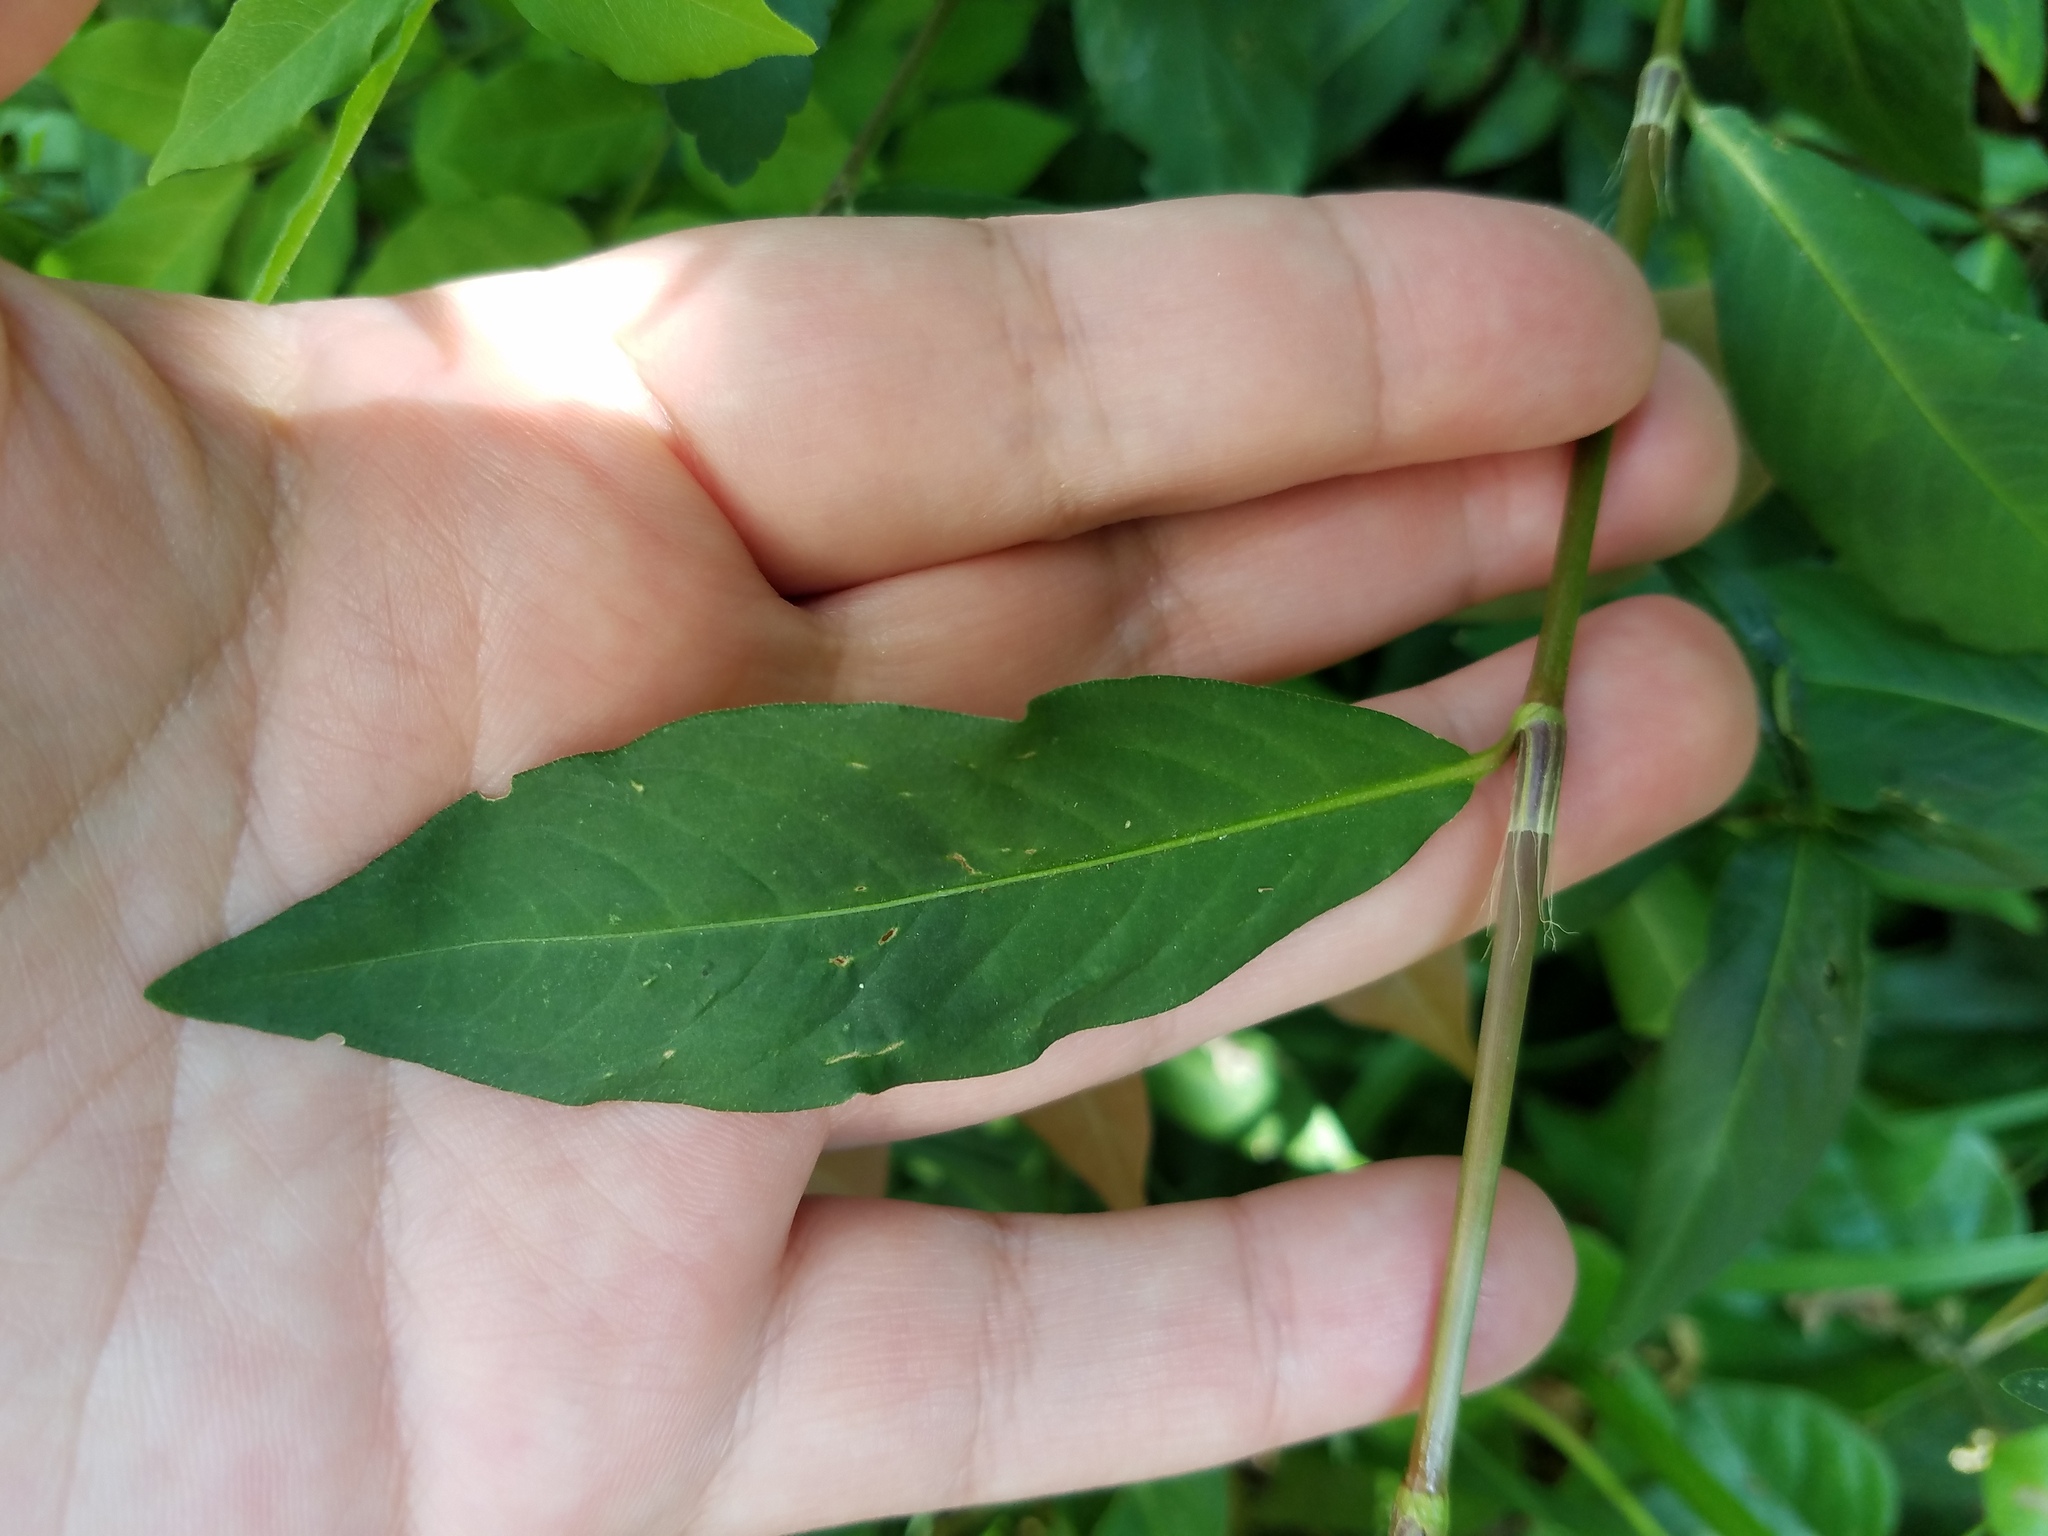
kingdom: Plantae
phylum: Tracheophyta
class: Magnoliopsida
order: Caryophyllales
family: Polygonaceae
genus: Persicaria
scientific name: Persicaria longiseta
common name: Bristly lady's-thumb
